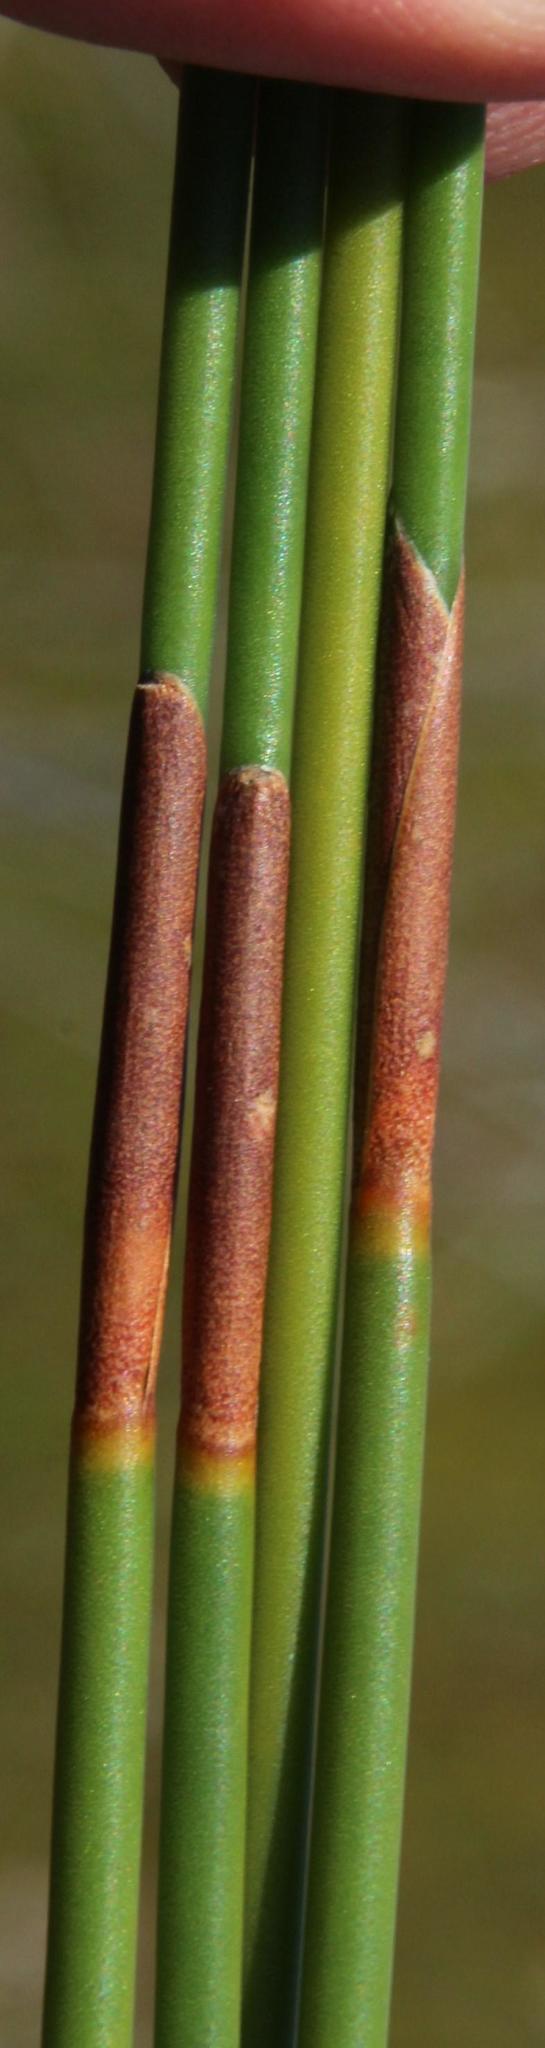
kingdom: Plantae
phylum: Tracheophyta
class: Liliopsida
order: Poales
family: Restionaceae
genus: Nevillea
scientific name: Nevillea obtusissimus
